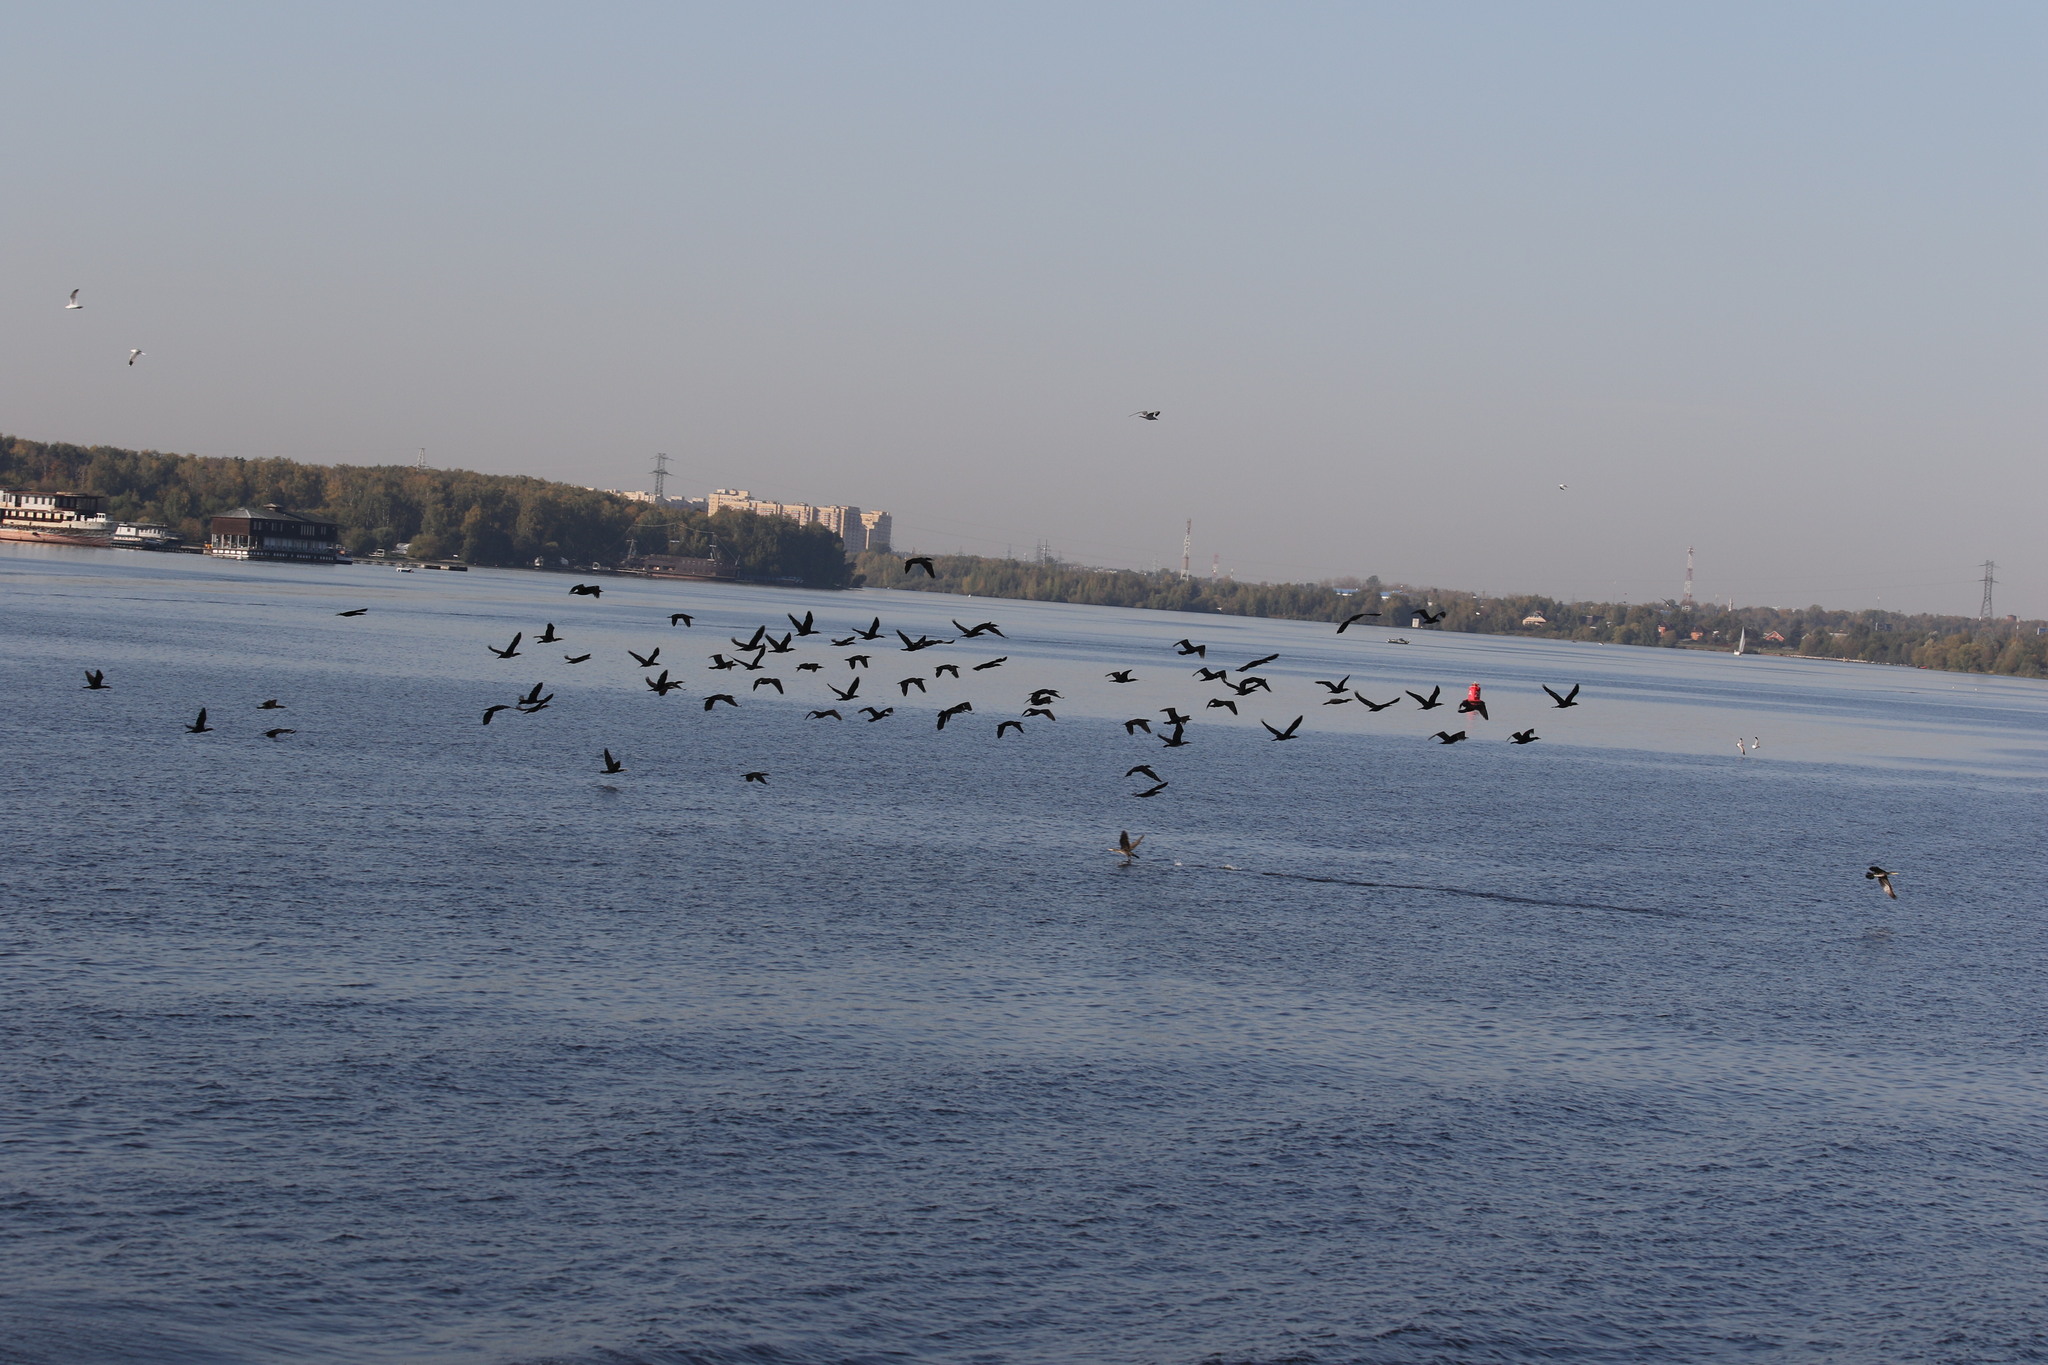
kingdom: Animalia
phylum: Chordata
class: Aves
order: Suliformes
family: Phalacrocoracidae
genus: Phalacrocorax
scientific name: Phalacrocorax carbo
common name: Great cormorant
